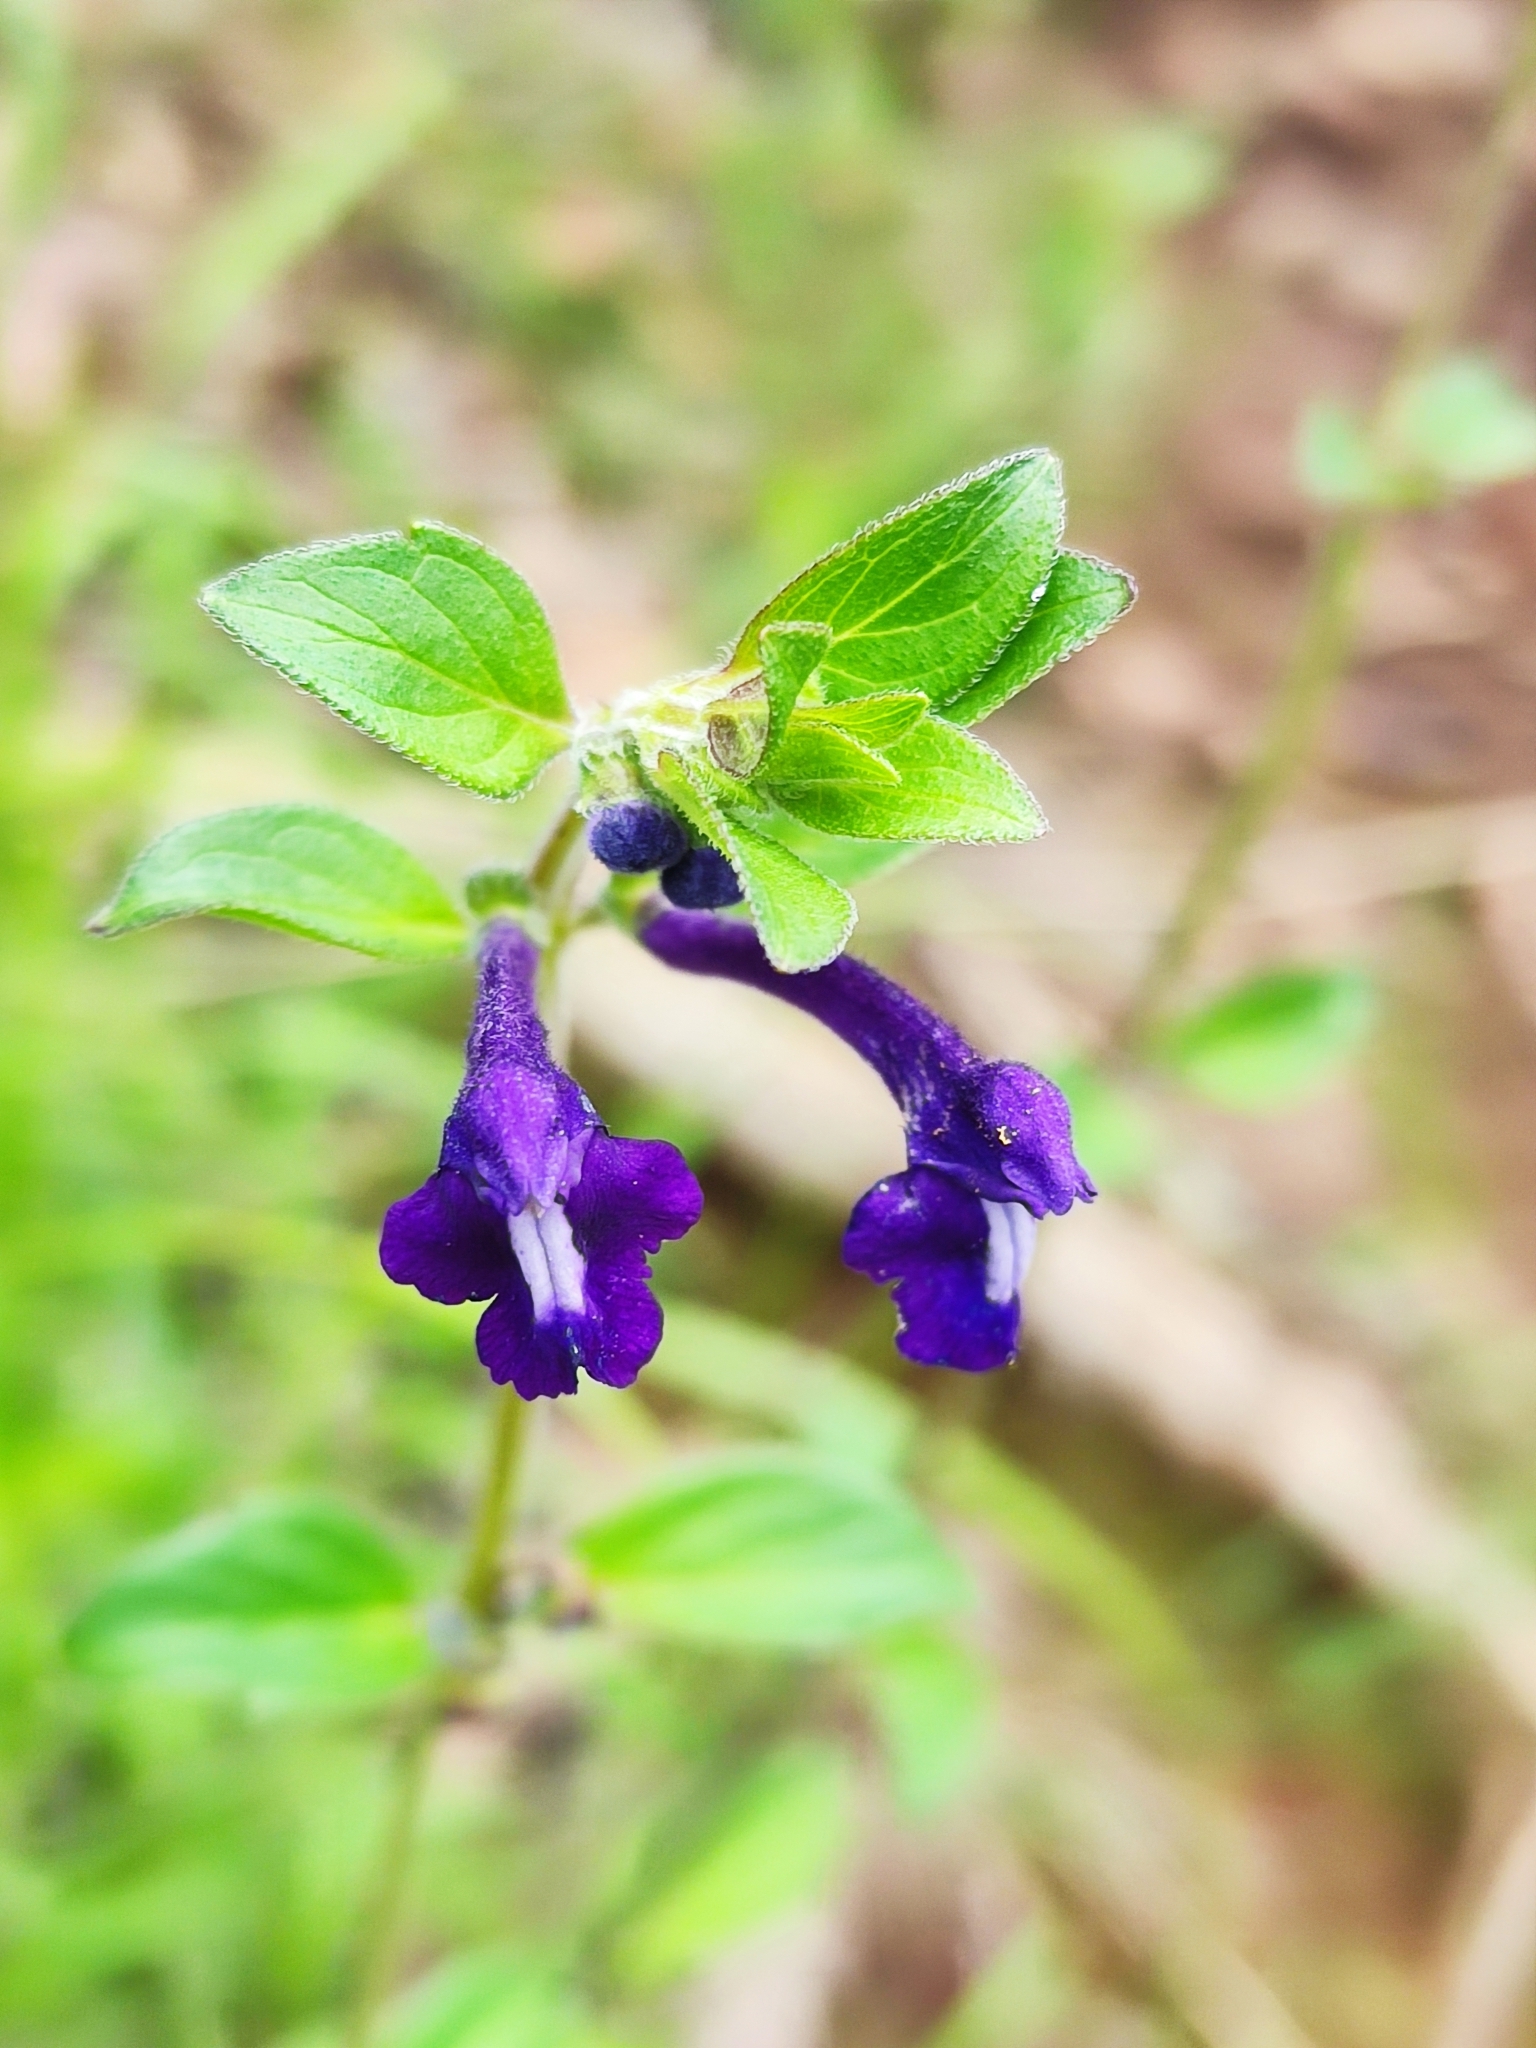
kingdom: Plantae
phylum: Tracheophyta
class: Magnoliopsida
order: Lamiales
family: Lamiaceae
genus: Scutellaria
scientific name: Scutellaria dumetorum
